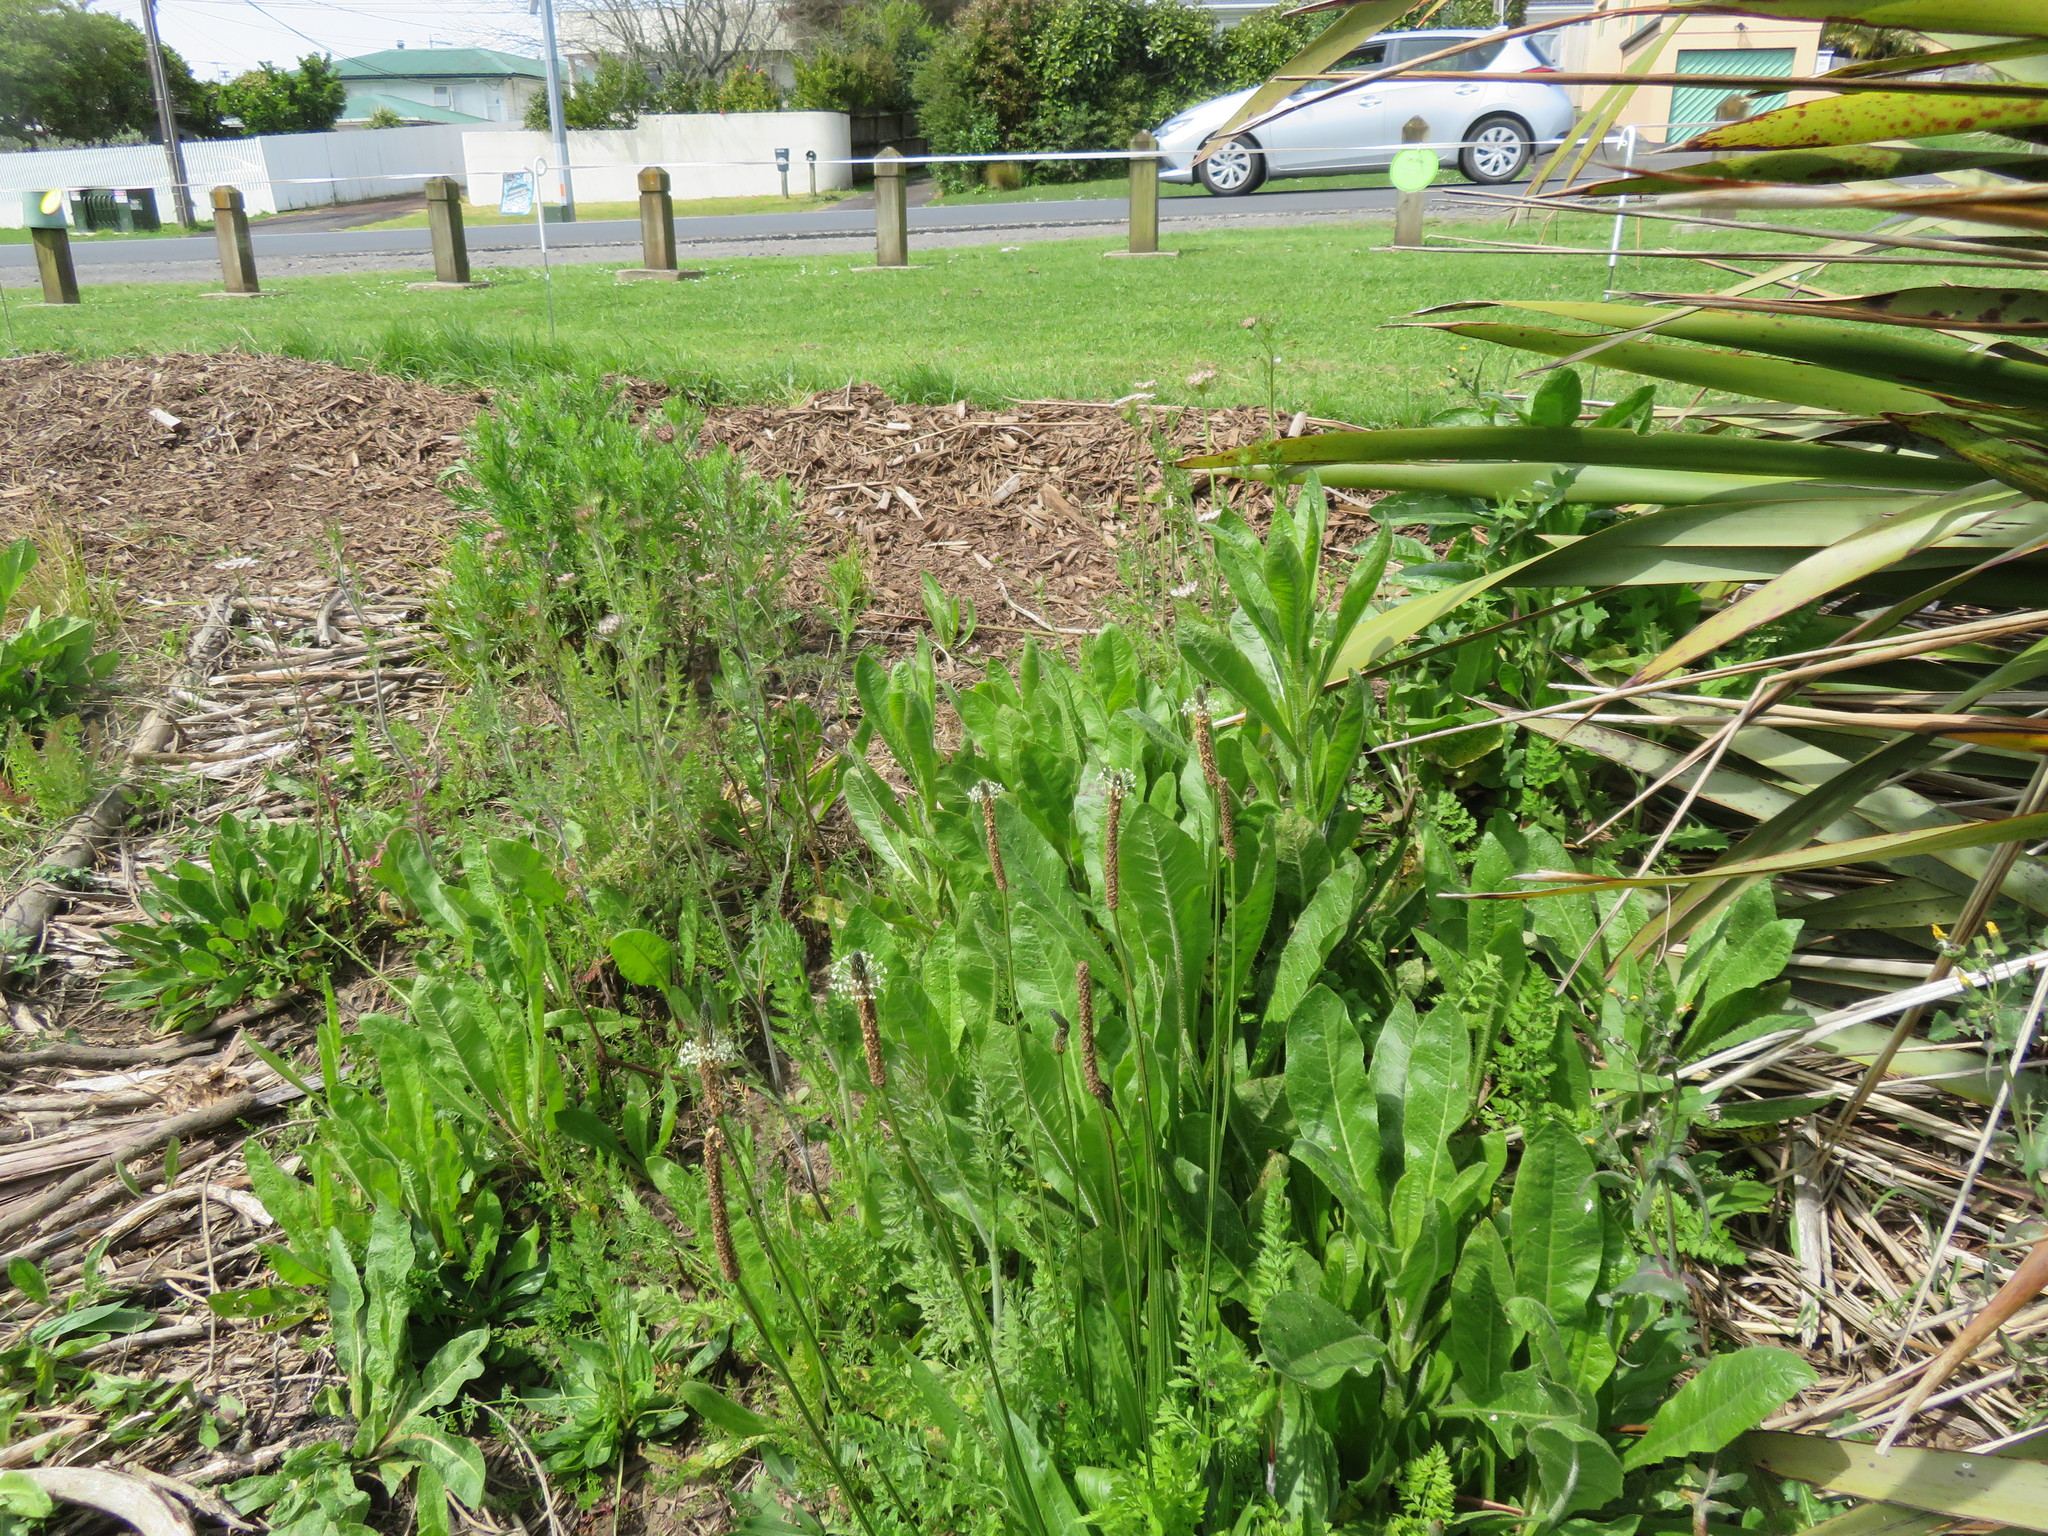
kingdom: Plantae
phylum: Tracheophyta
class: Magnoliopsida
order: Lamiales
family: Plantaginaceae
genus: Plantago
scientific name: Plantago lanceolata
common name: Ribwort plantain
